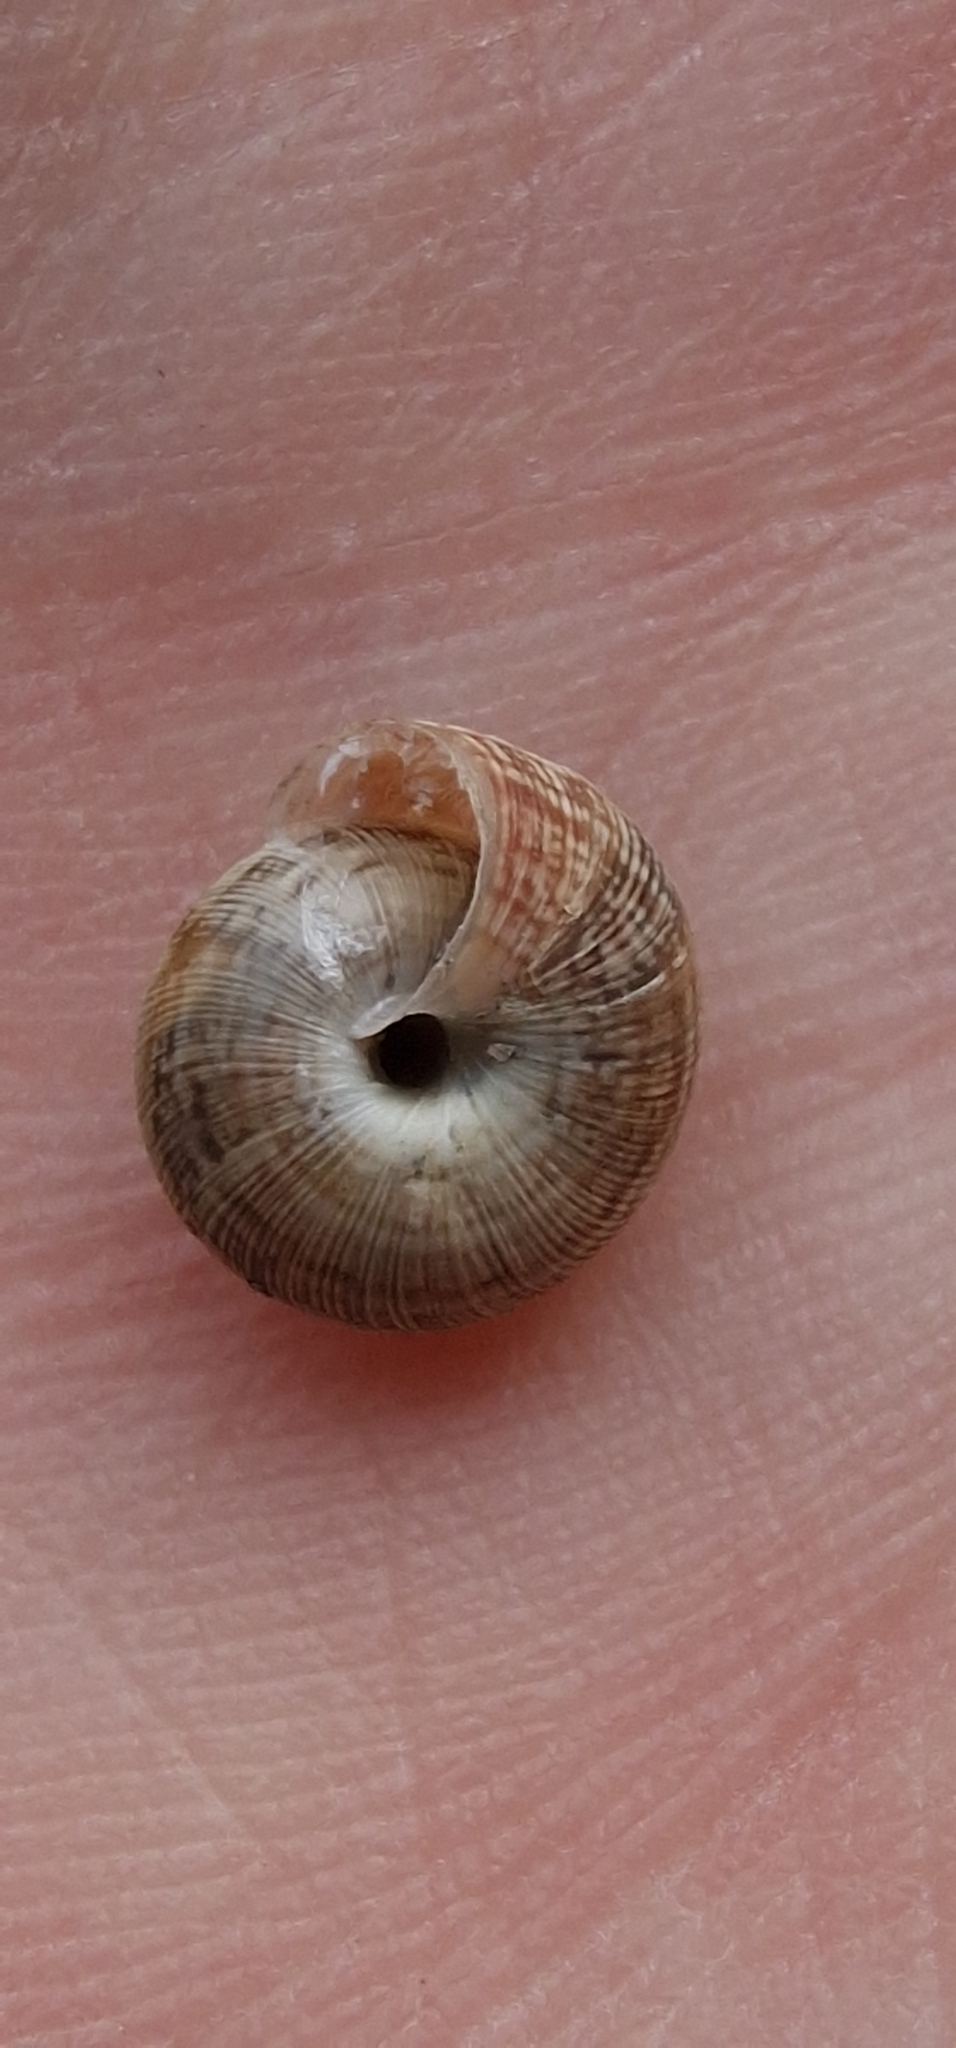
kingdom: Animalia
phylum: Mollusca
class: Gastropoda
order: Stylommatophora
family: Geomitridae
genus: Xeroplexa
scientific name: Xeroplexa intersecta
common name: Wrinkled snail
